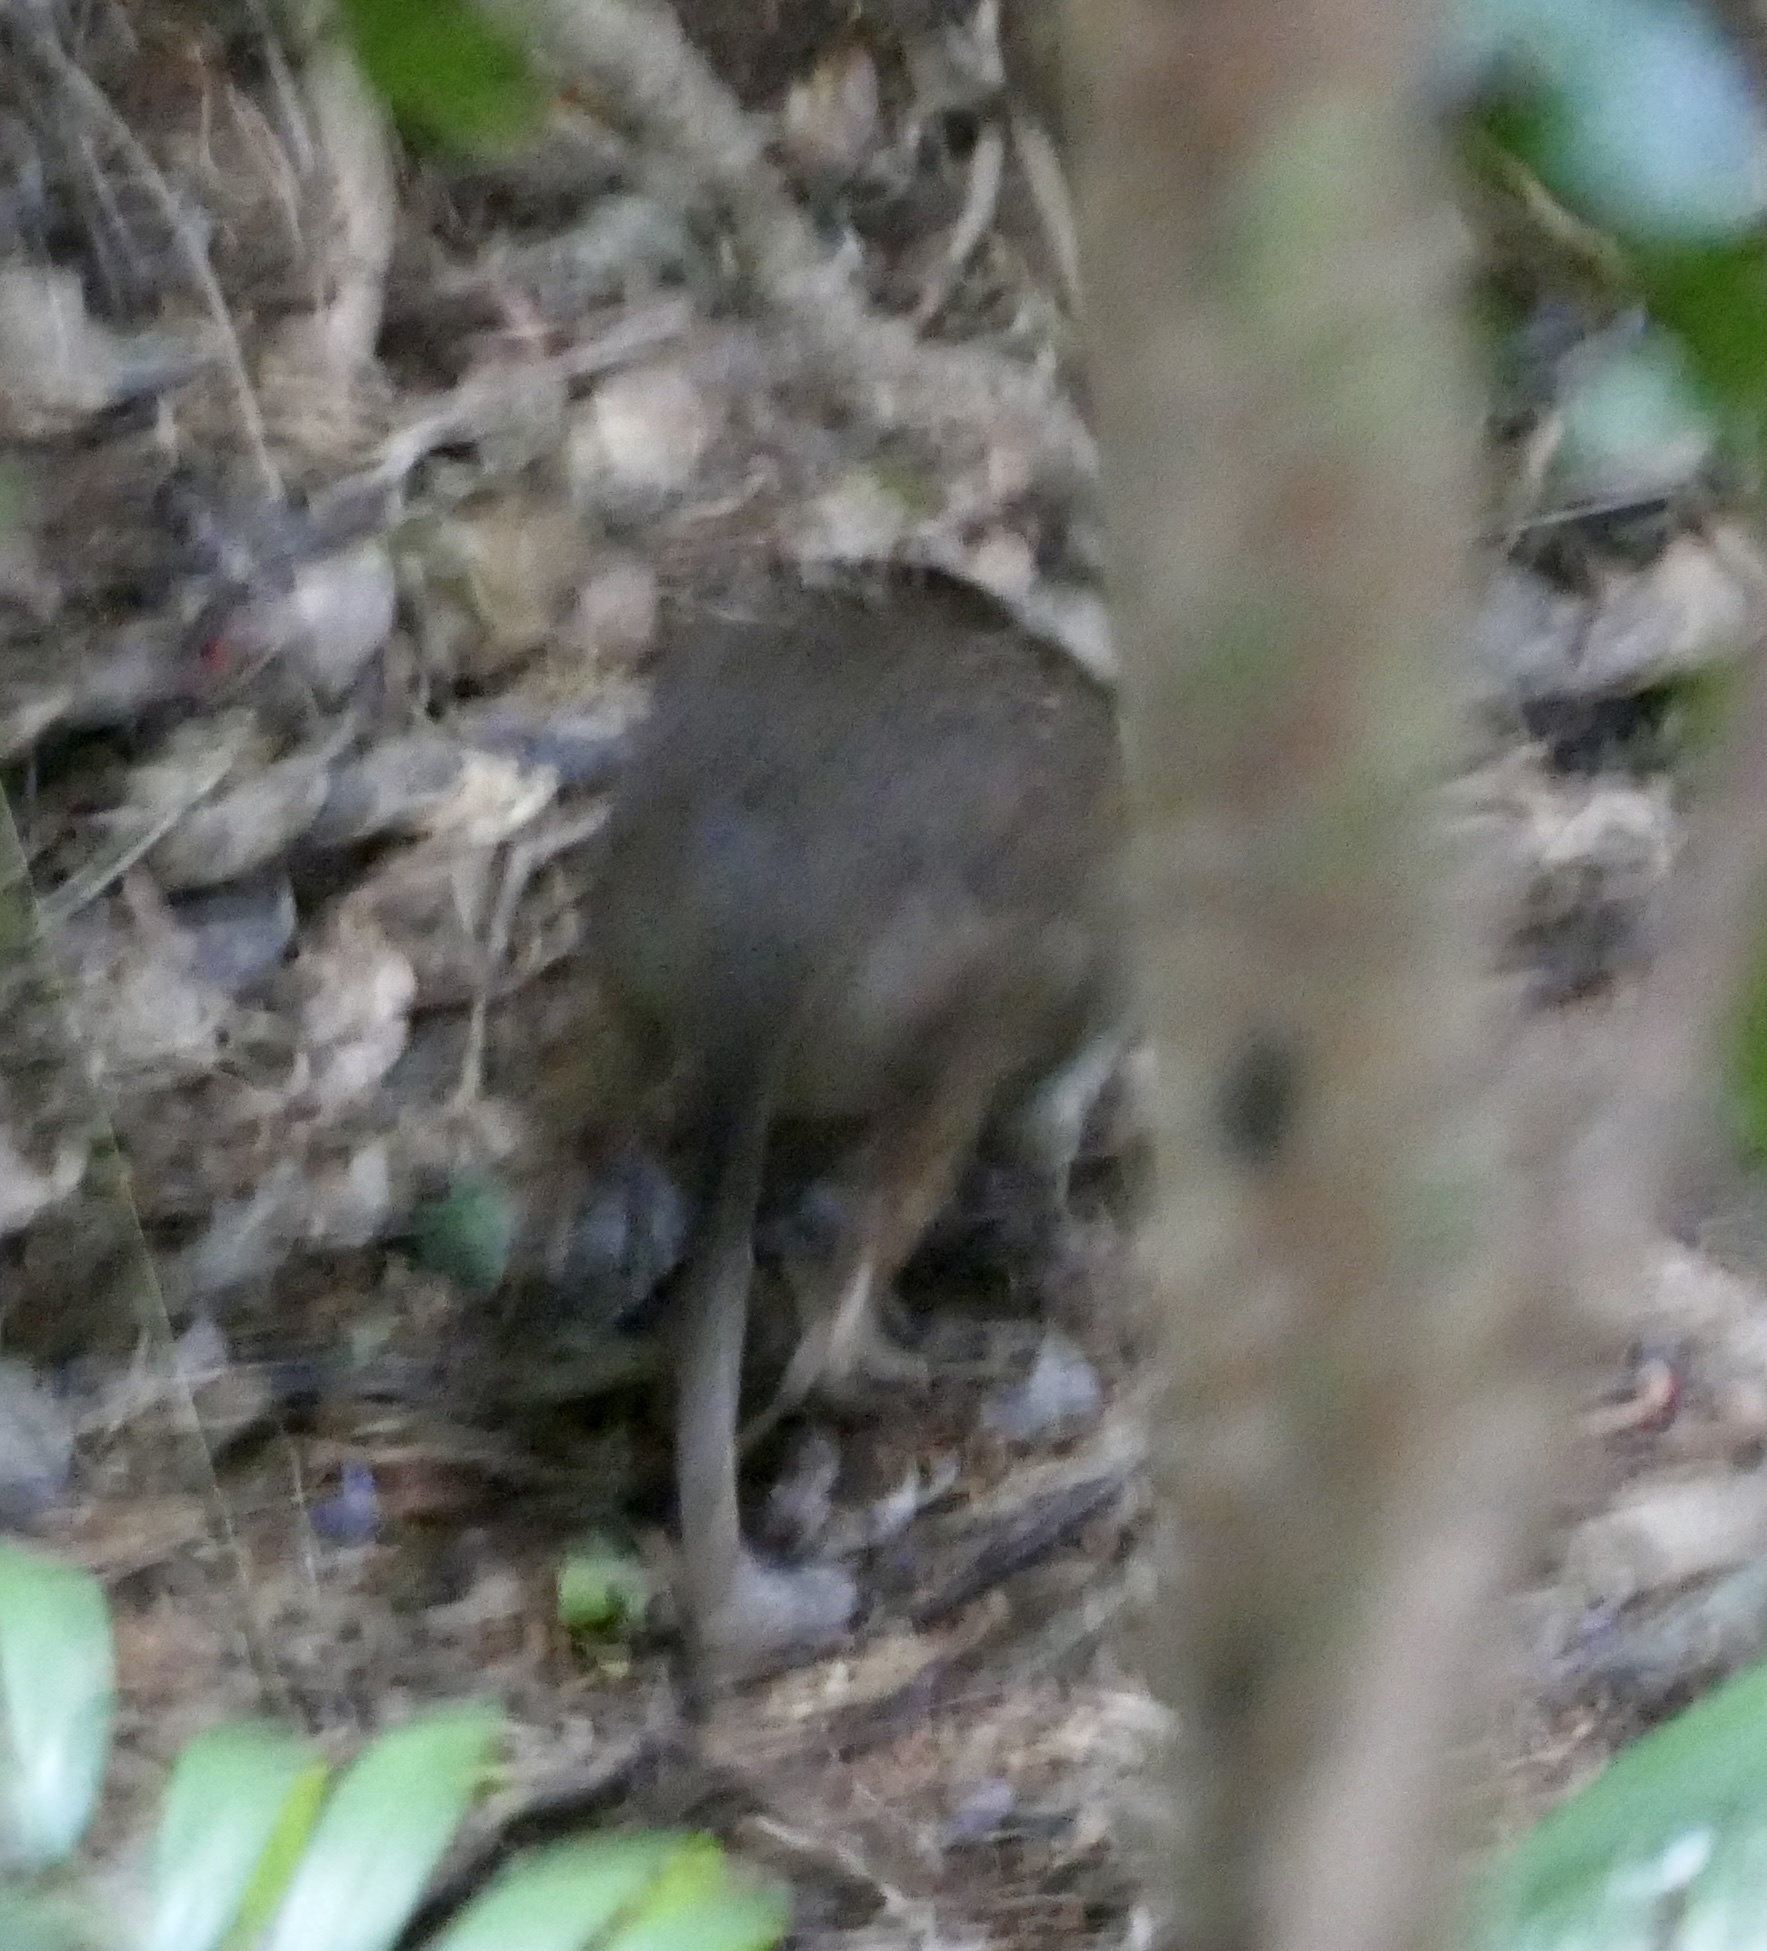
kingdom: Animalia
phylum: Chordata
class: Mammalia
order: Diprotodontia
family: Macropodidae
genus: Thylogale
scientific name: Thylogale stigmatica
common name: Red-legged pademelon
